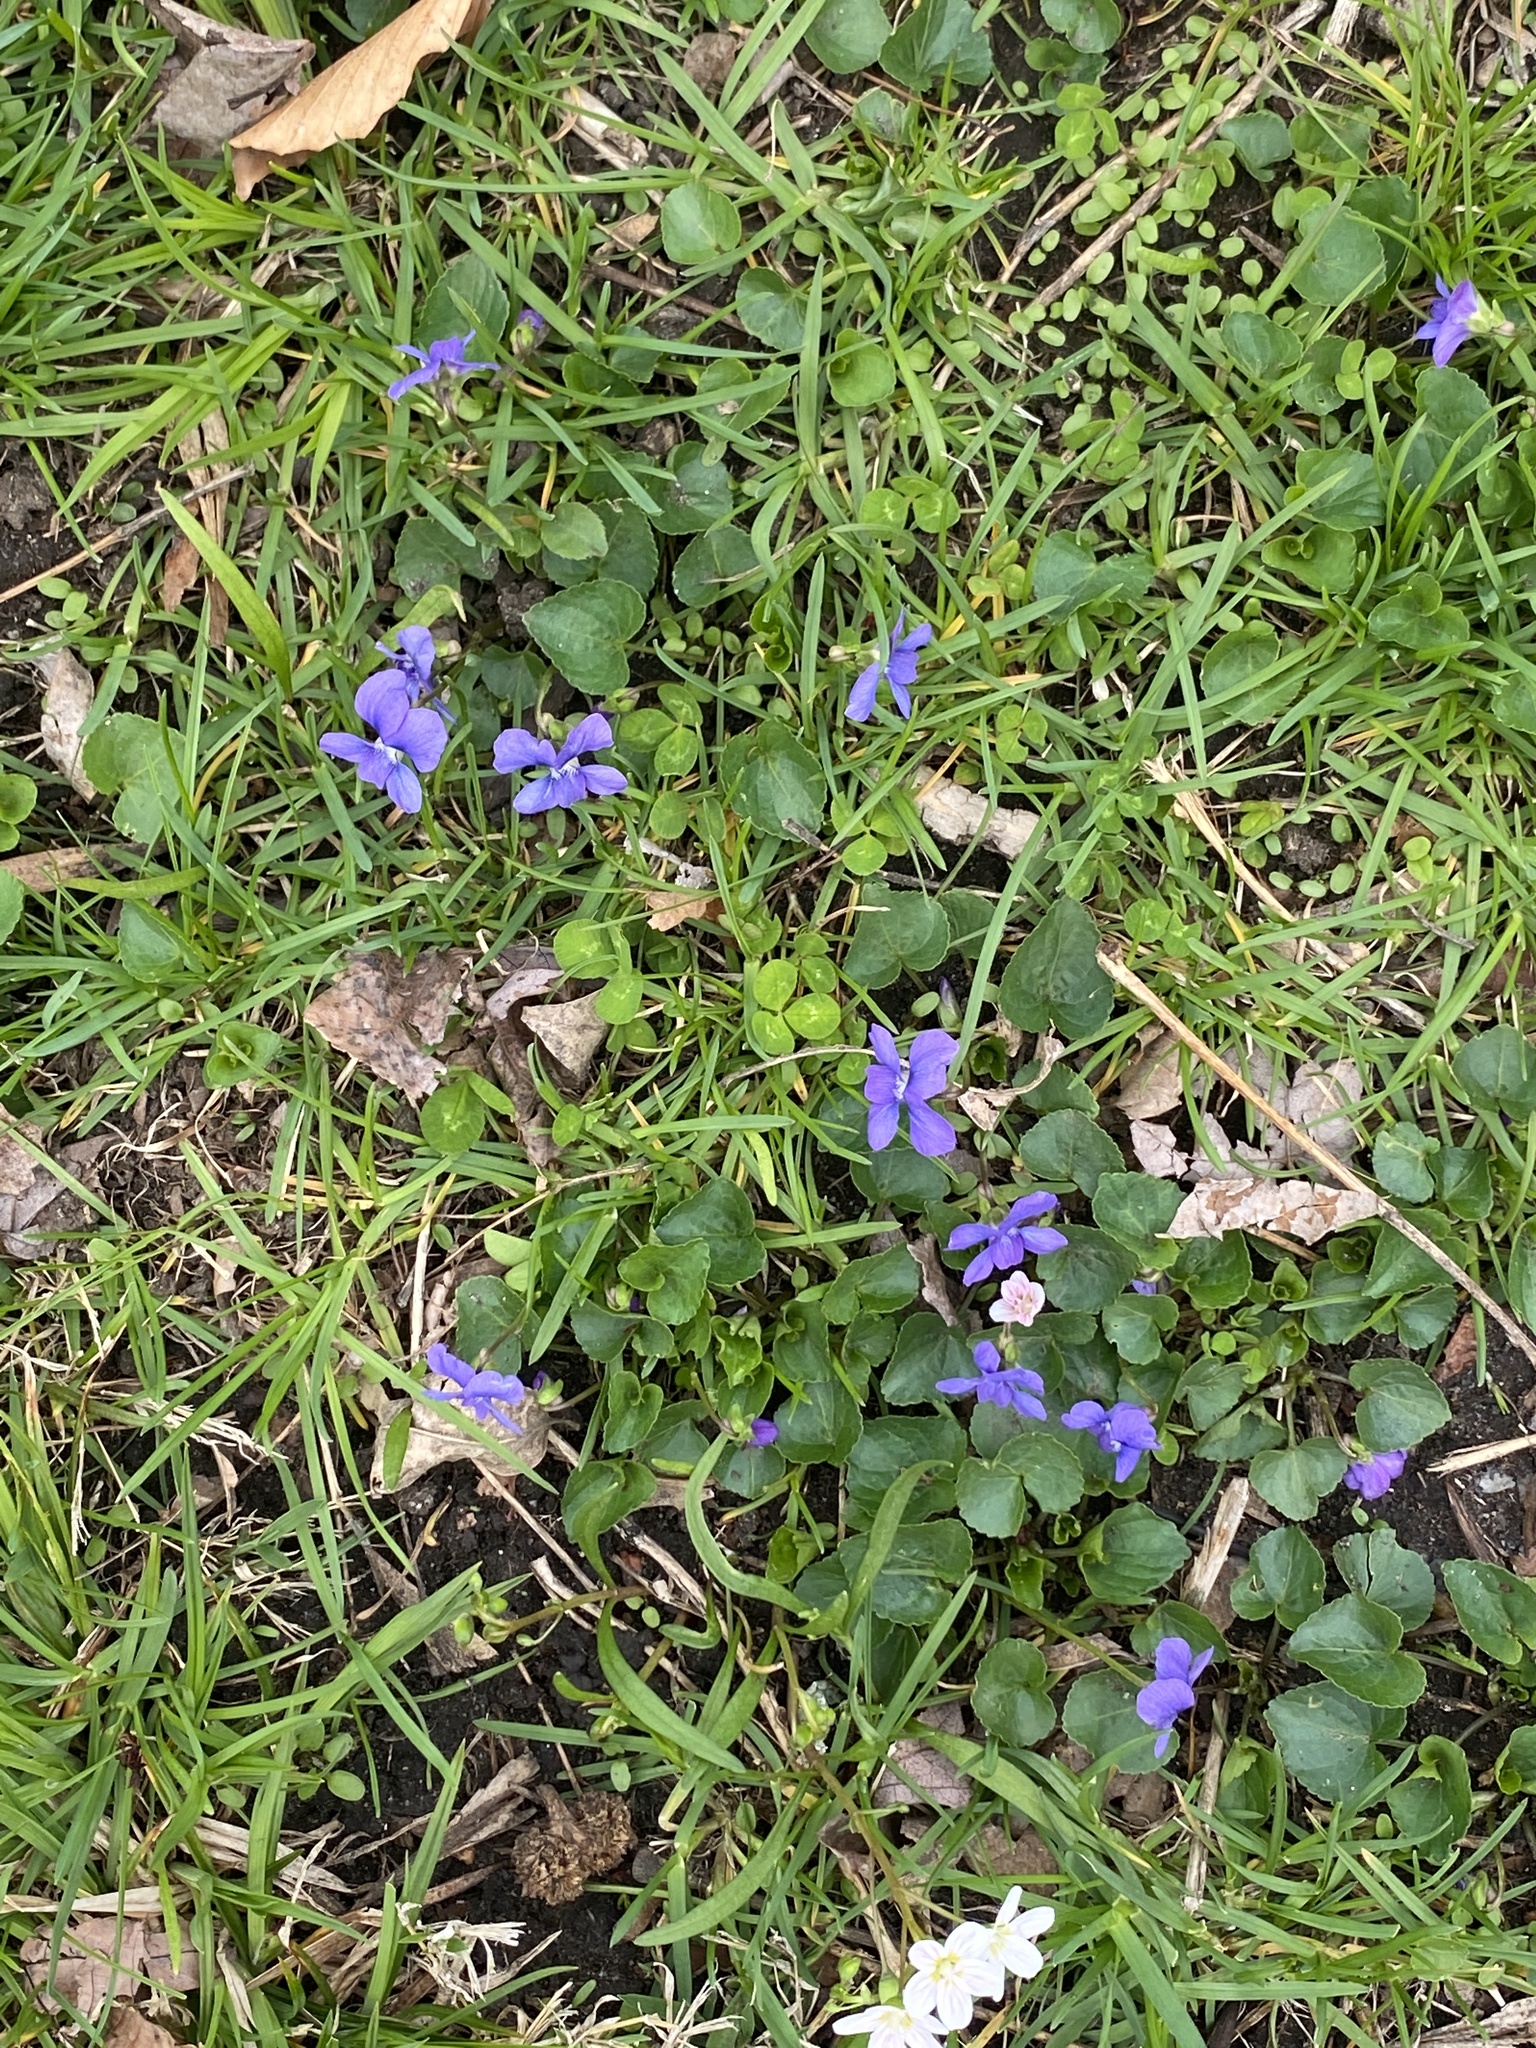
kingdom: Plantae
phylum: Tracheophyta
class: Magnoliopsida
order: Malpighiales
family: Violaceae
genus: Viola
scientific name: Viola sororia
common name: Dooryard violet
